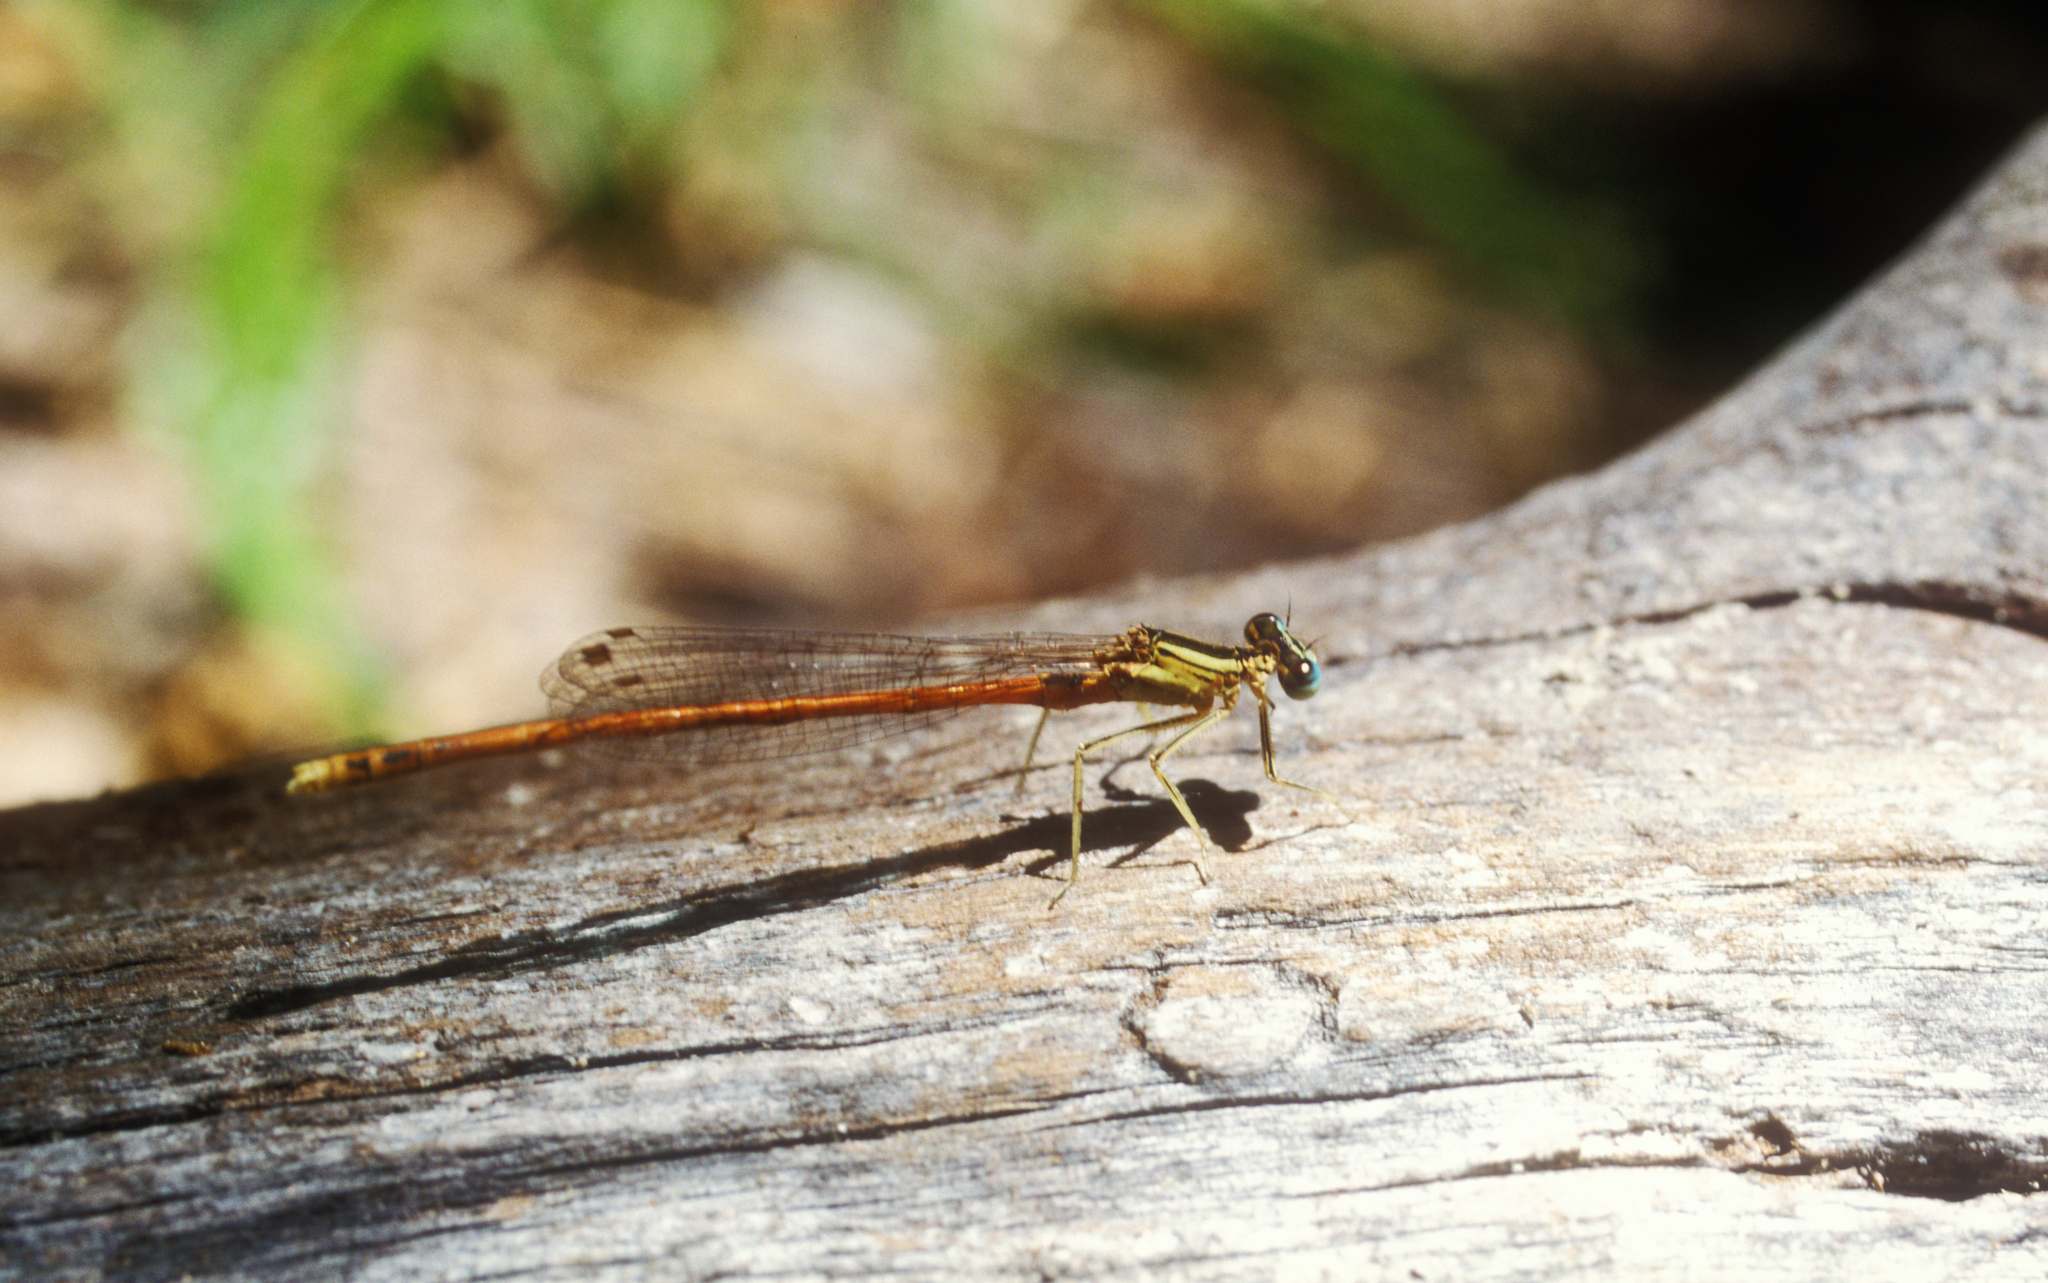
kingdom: Animalia
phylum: Arthropoda
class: Insecta
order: Odonata
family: Platycnemididae
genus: Platycnemis
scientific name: Platycnemis acutipennis
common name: Orange featherleg
